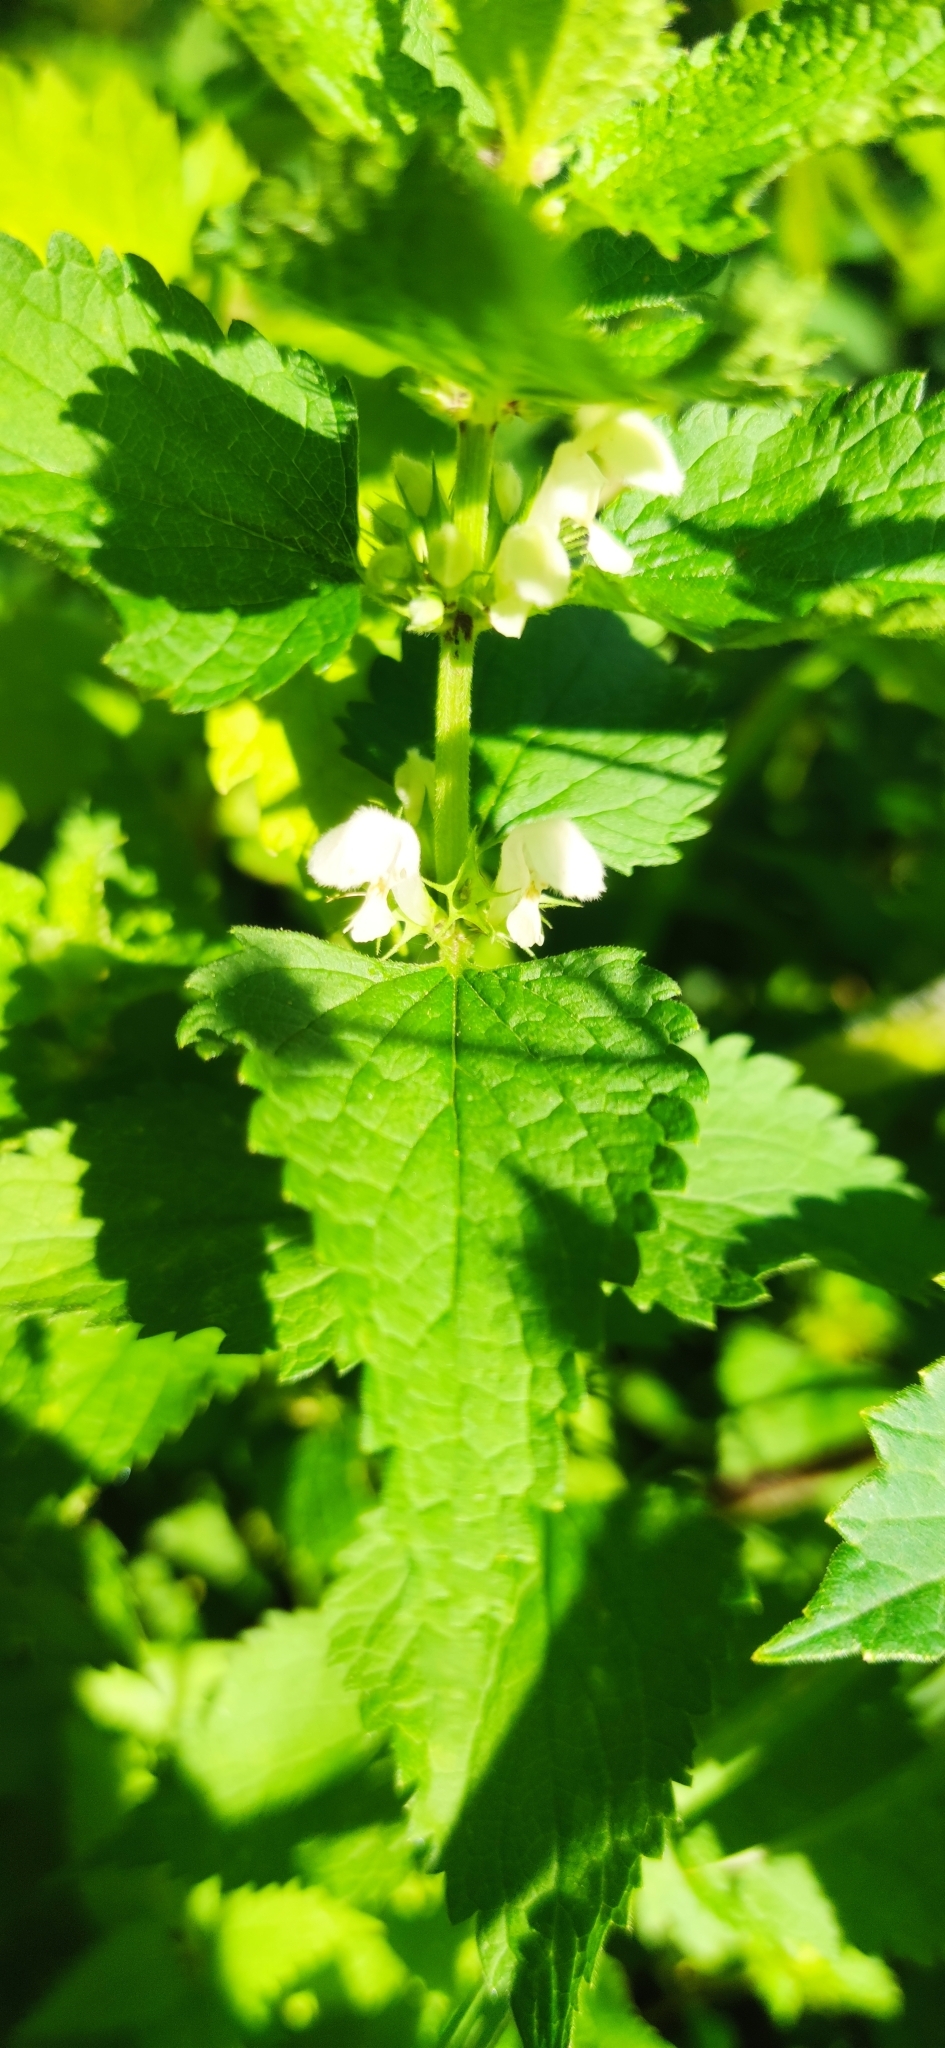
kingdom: Plantae
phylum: Tracheophyta
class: Magnoliopsida
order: Lamiales
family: Lamiaceae
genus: Lamium
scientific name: Lamium album
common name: White dead-nettle
